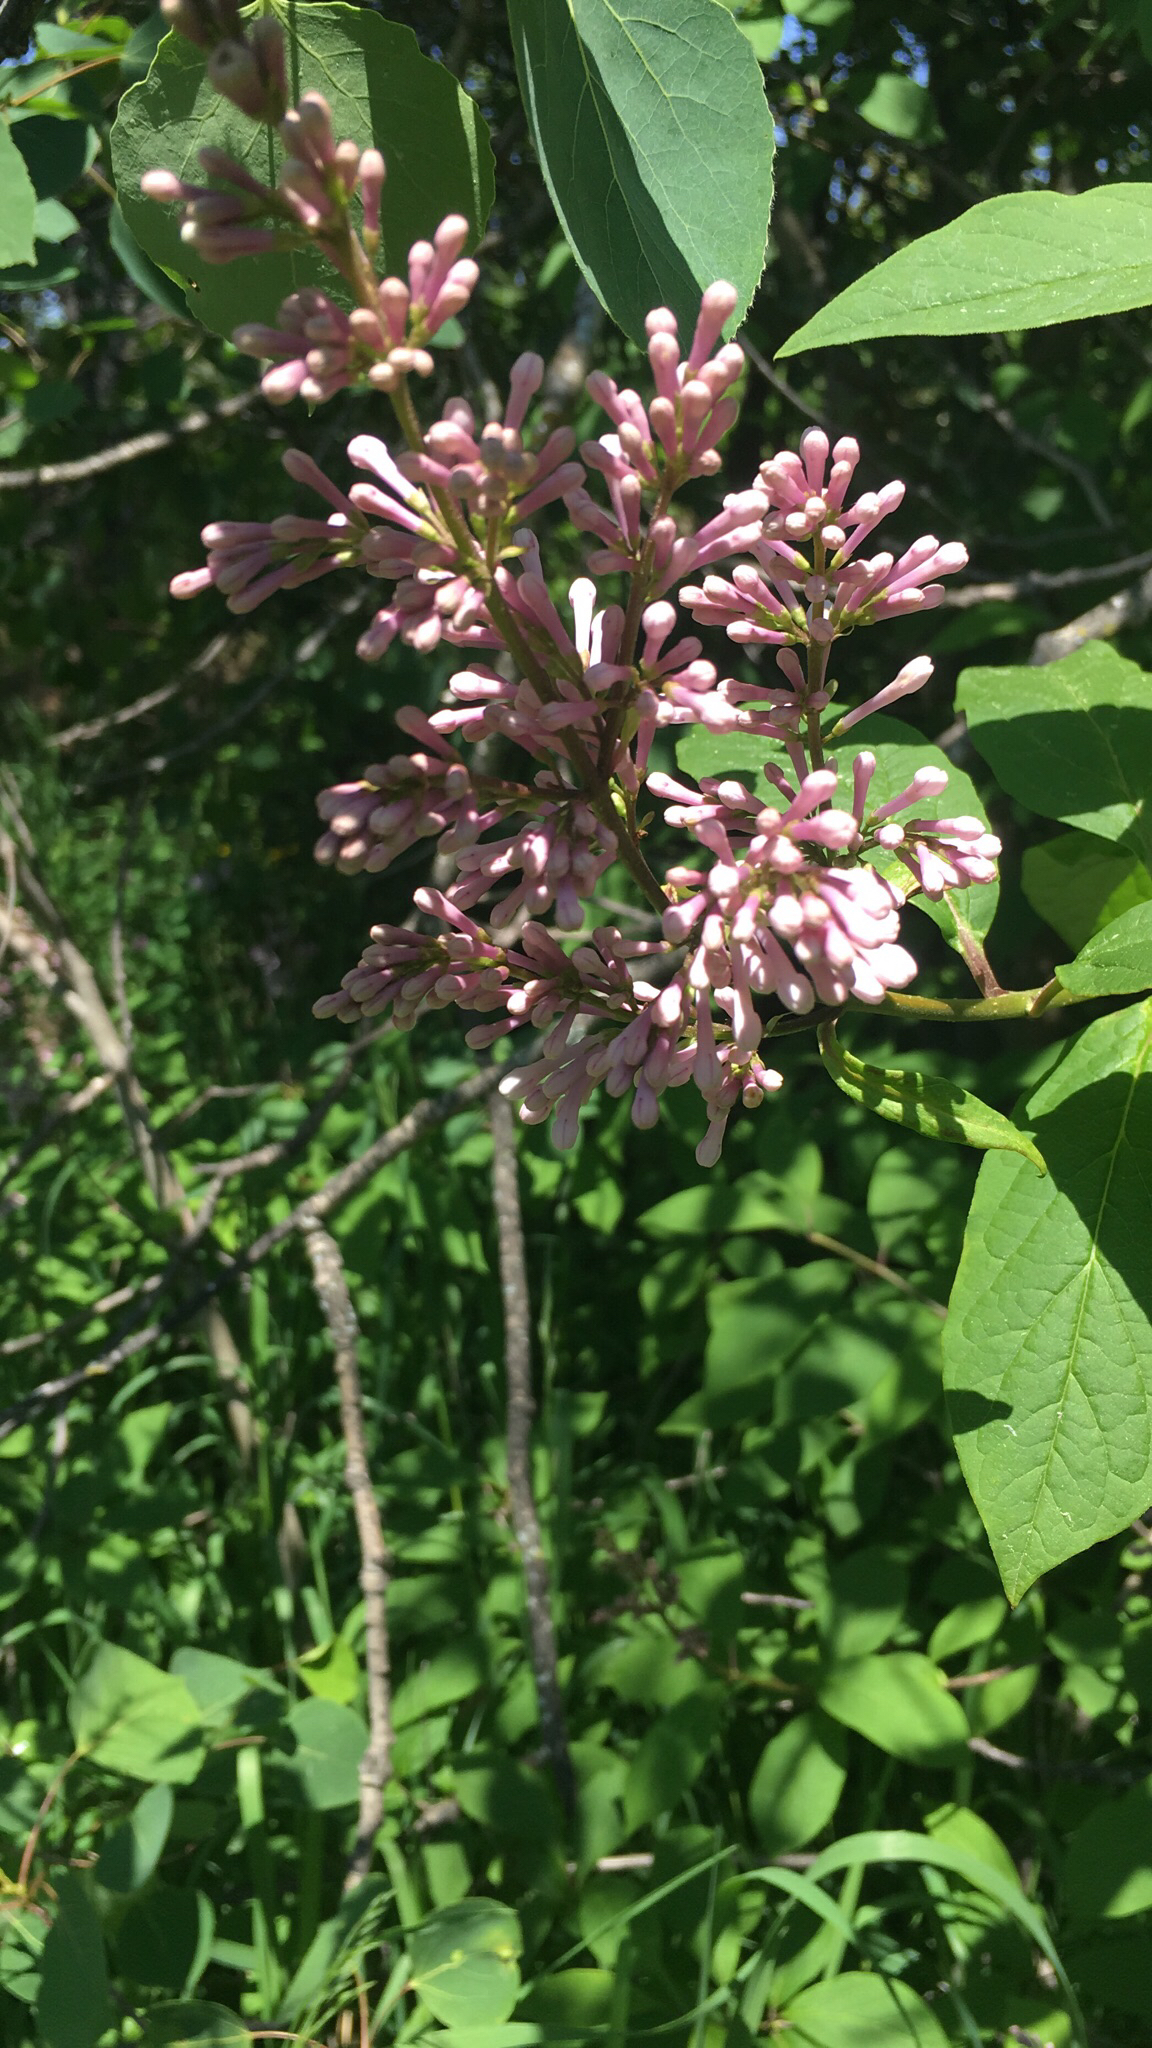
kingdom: Plantae
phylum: Tracheophyta
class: Magnoliopsida
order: Lamiales
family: Oleaceae
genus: Syringa
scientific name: Syringa vulgaris
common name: Common lilac
